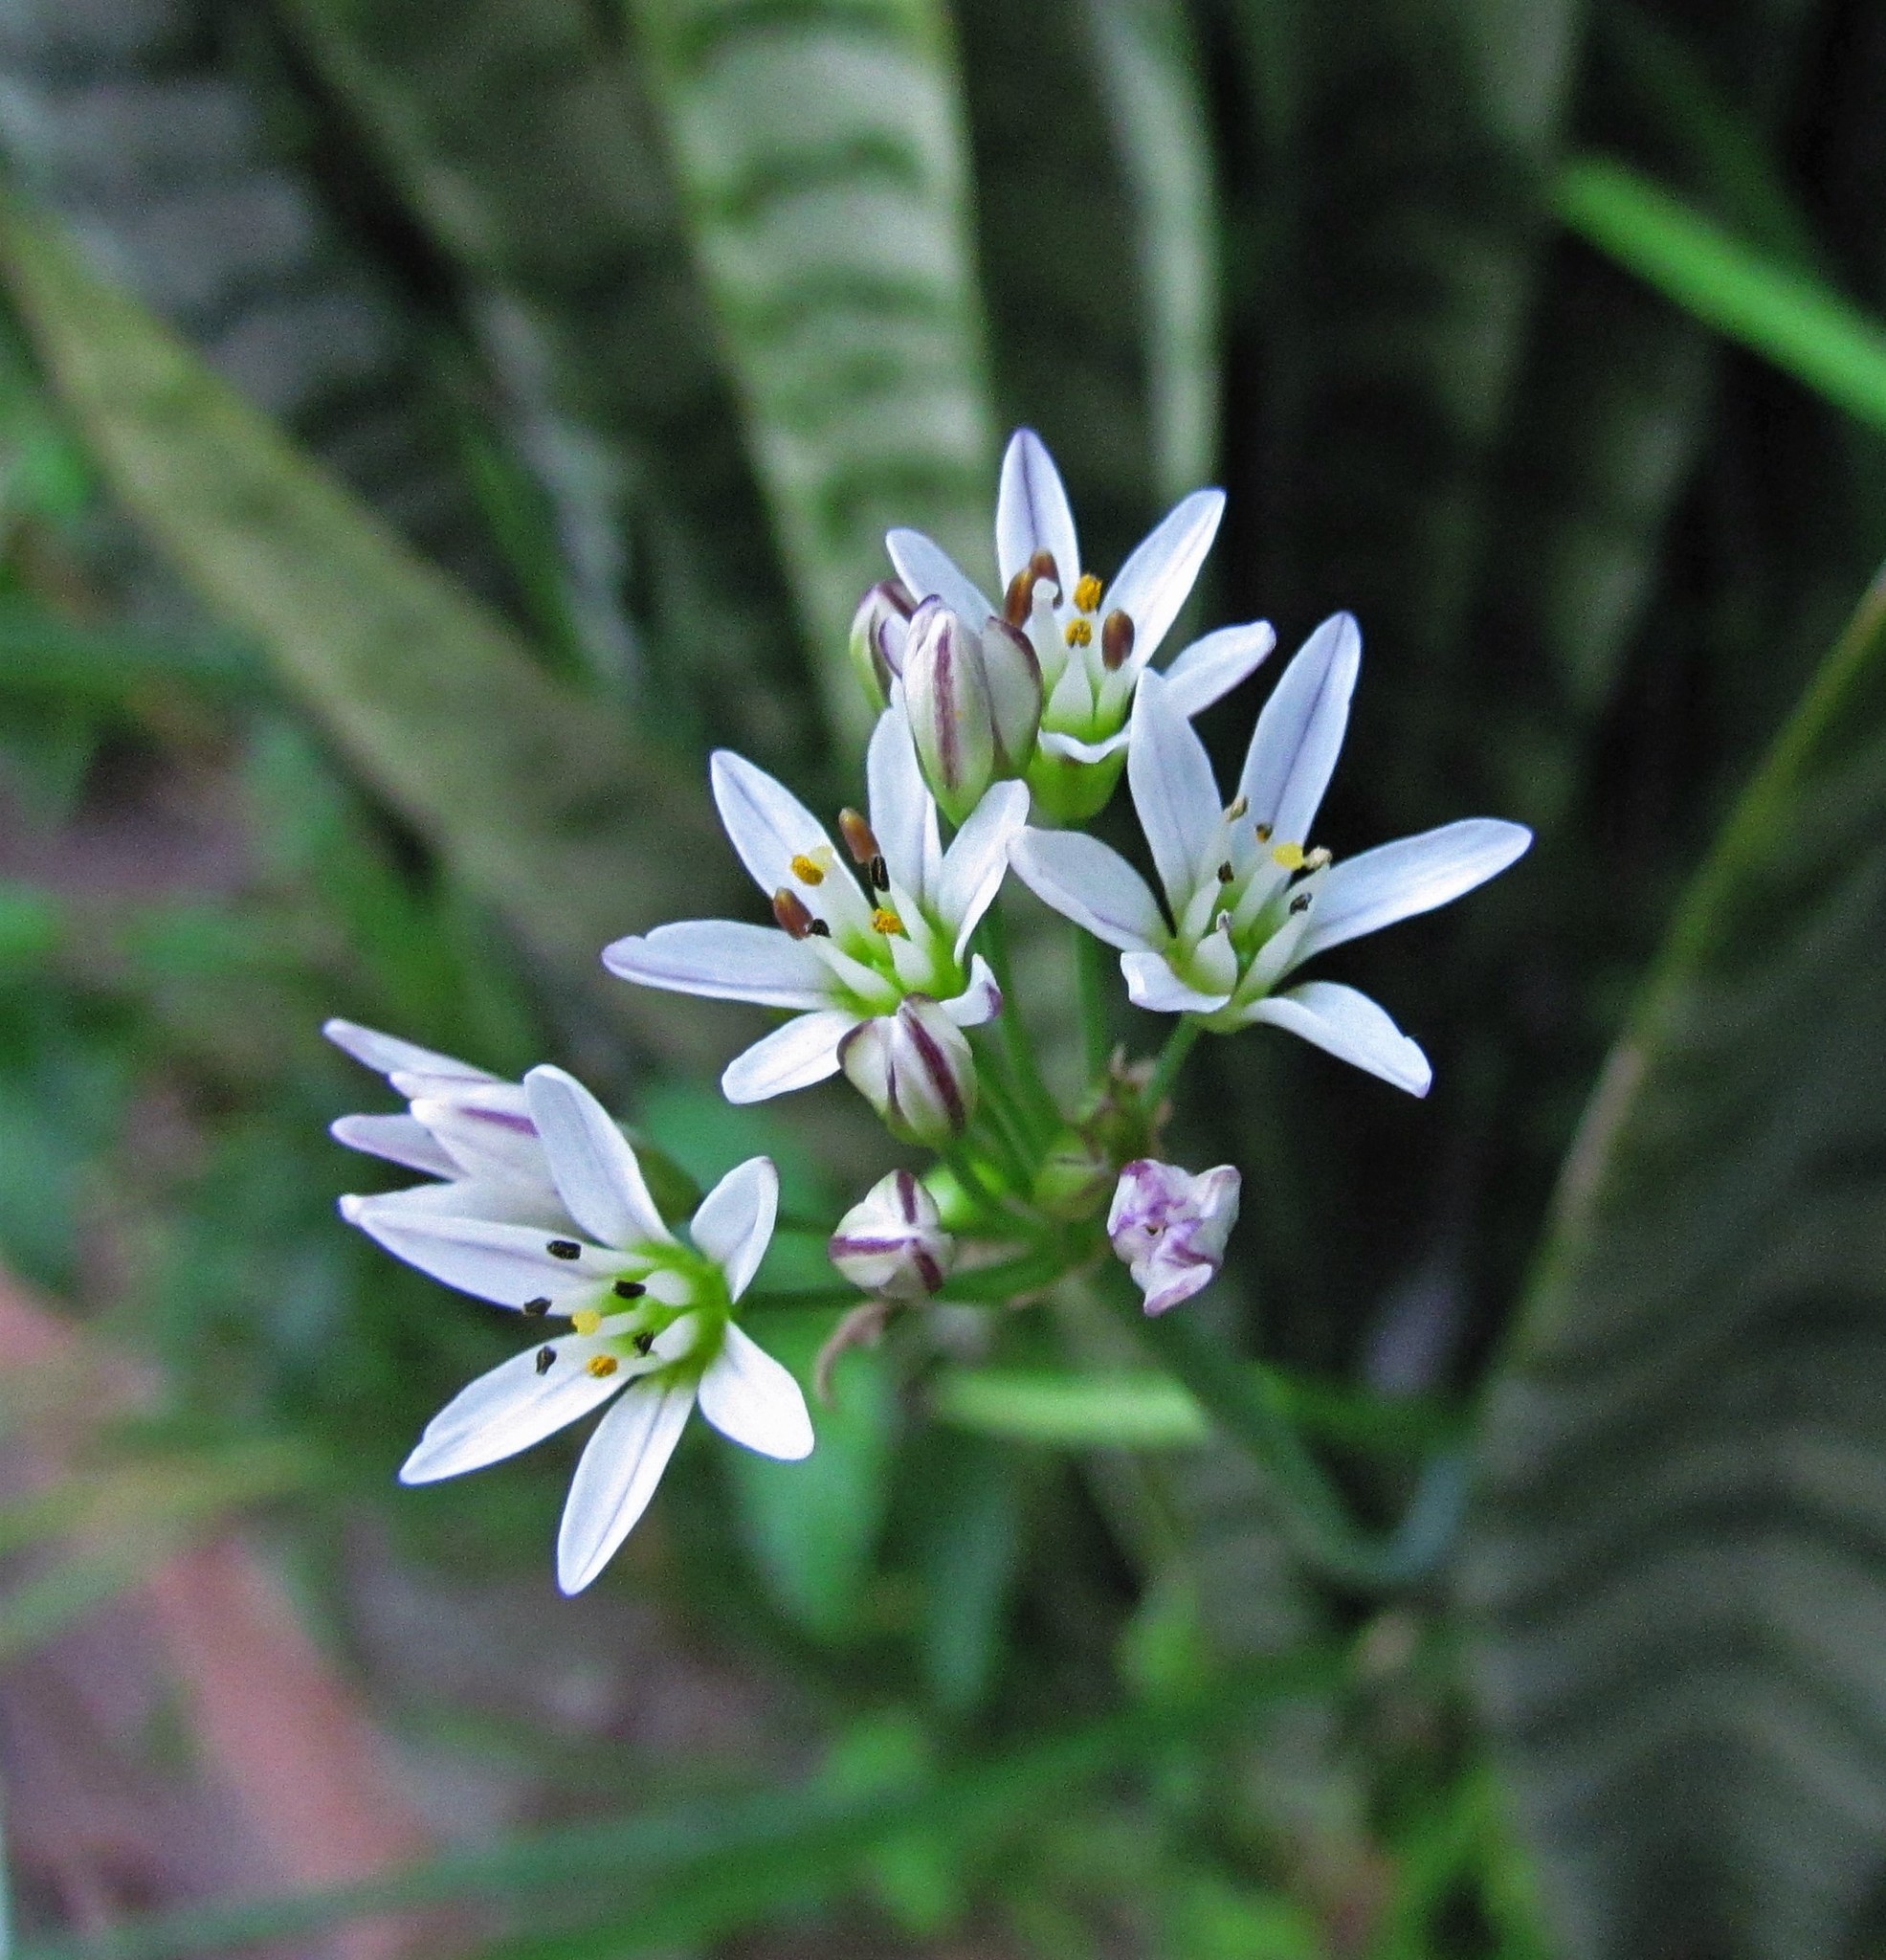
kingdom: Plantae
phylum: Tracheophyta
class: Liliopsida
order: Asparagales
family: Amaryllidaceae
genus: Nothoscordum
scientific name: Nothoscordum gracile
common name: Slender false garlic
